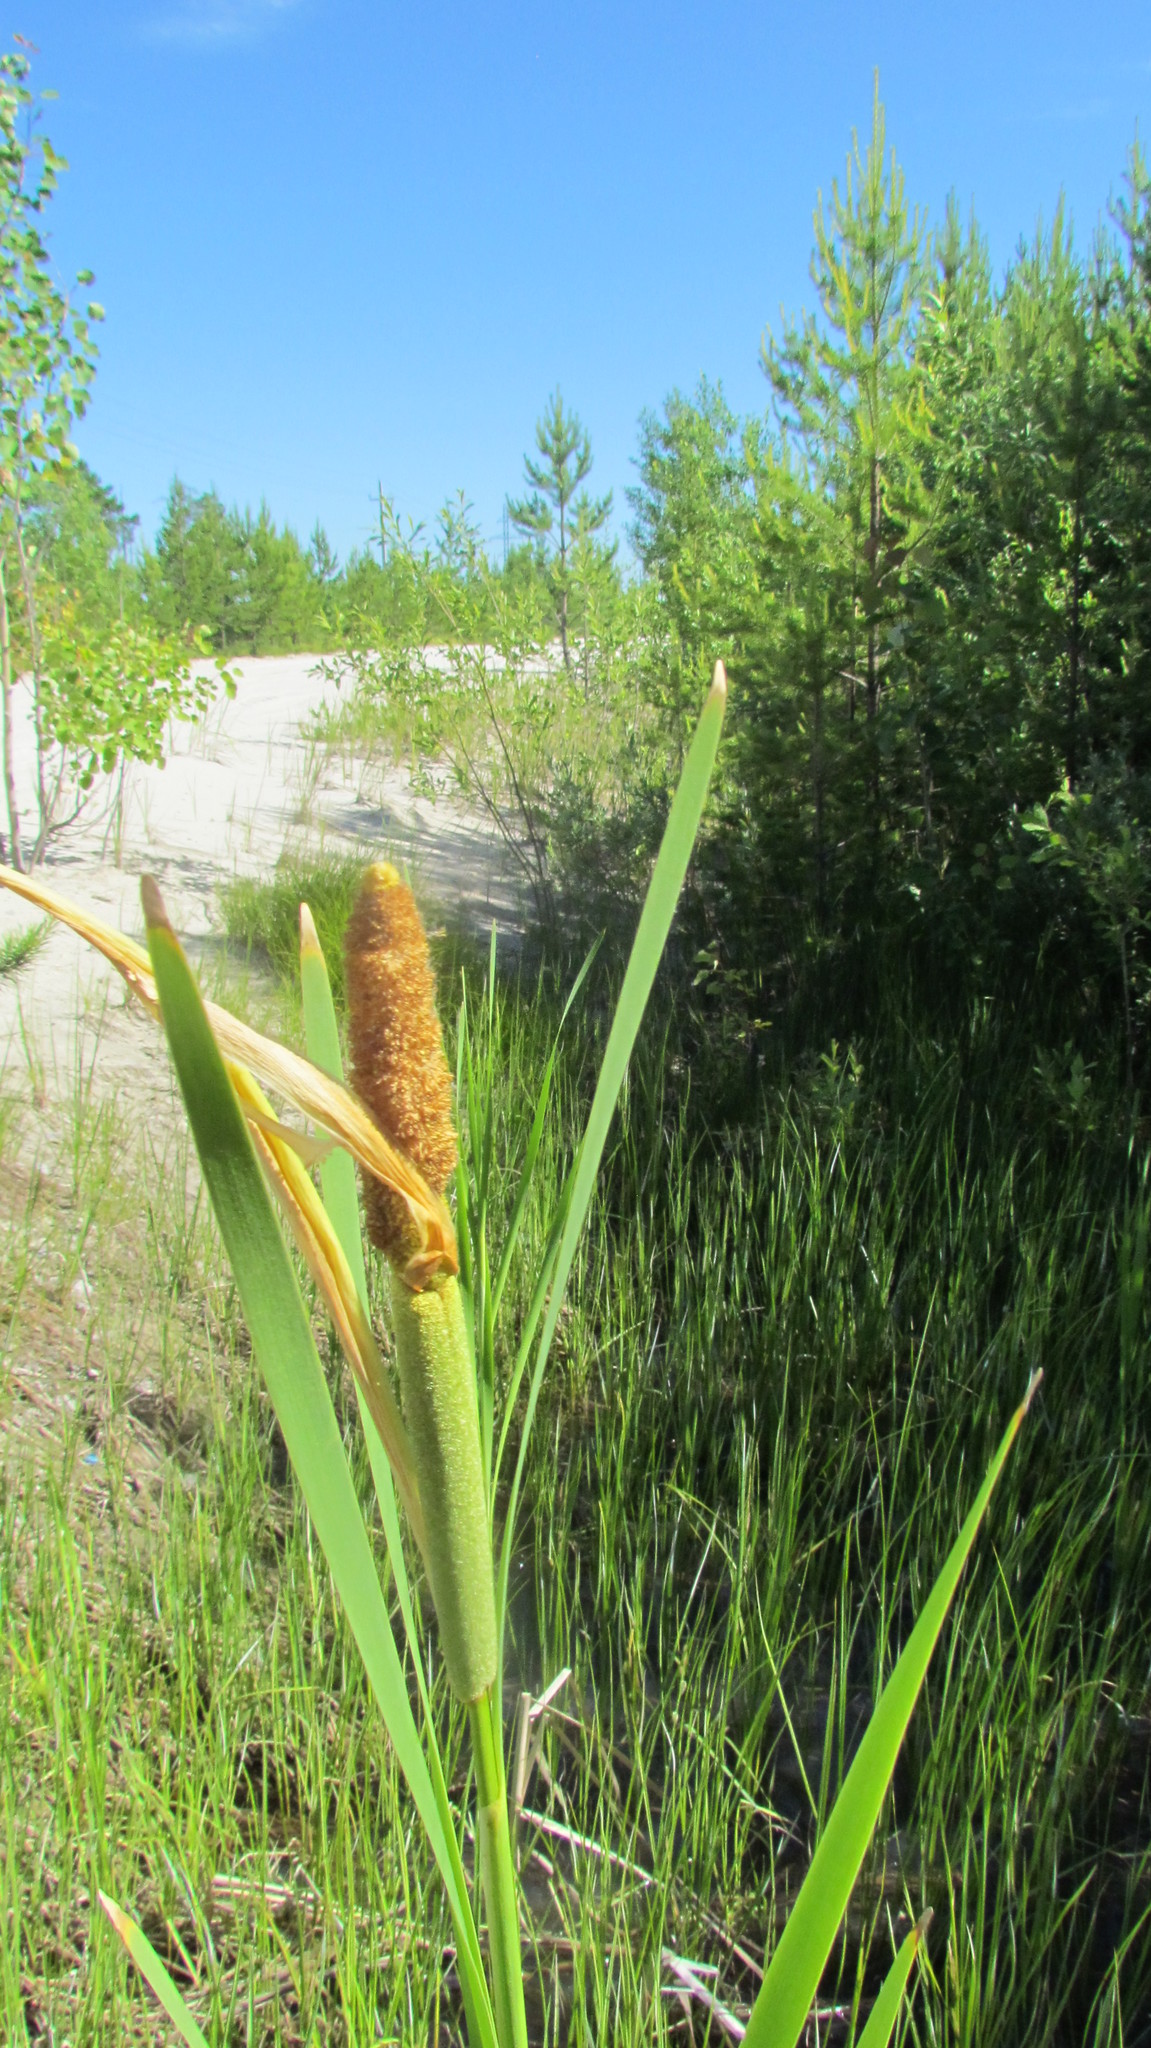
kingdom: Plantae
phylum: Tracheophyta
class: Liliopsida
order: Poales
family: Typhaceae
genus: Typha
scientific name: Typha latifolia
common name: Broadleaf cattail
